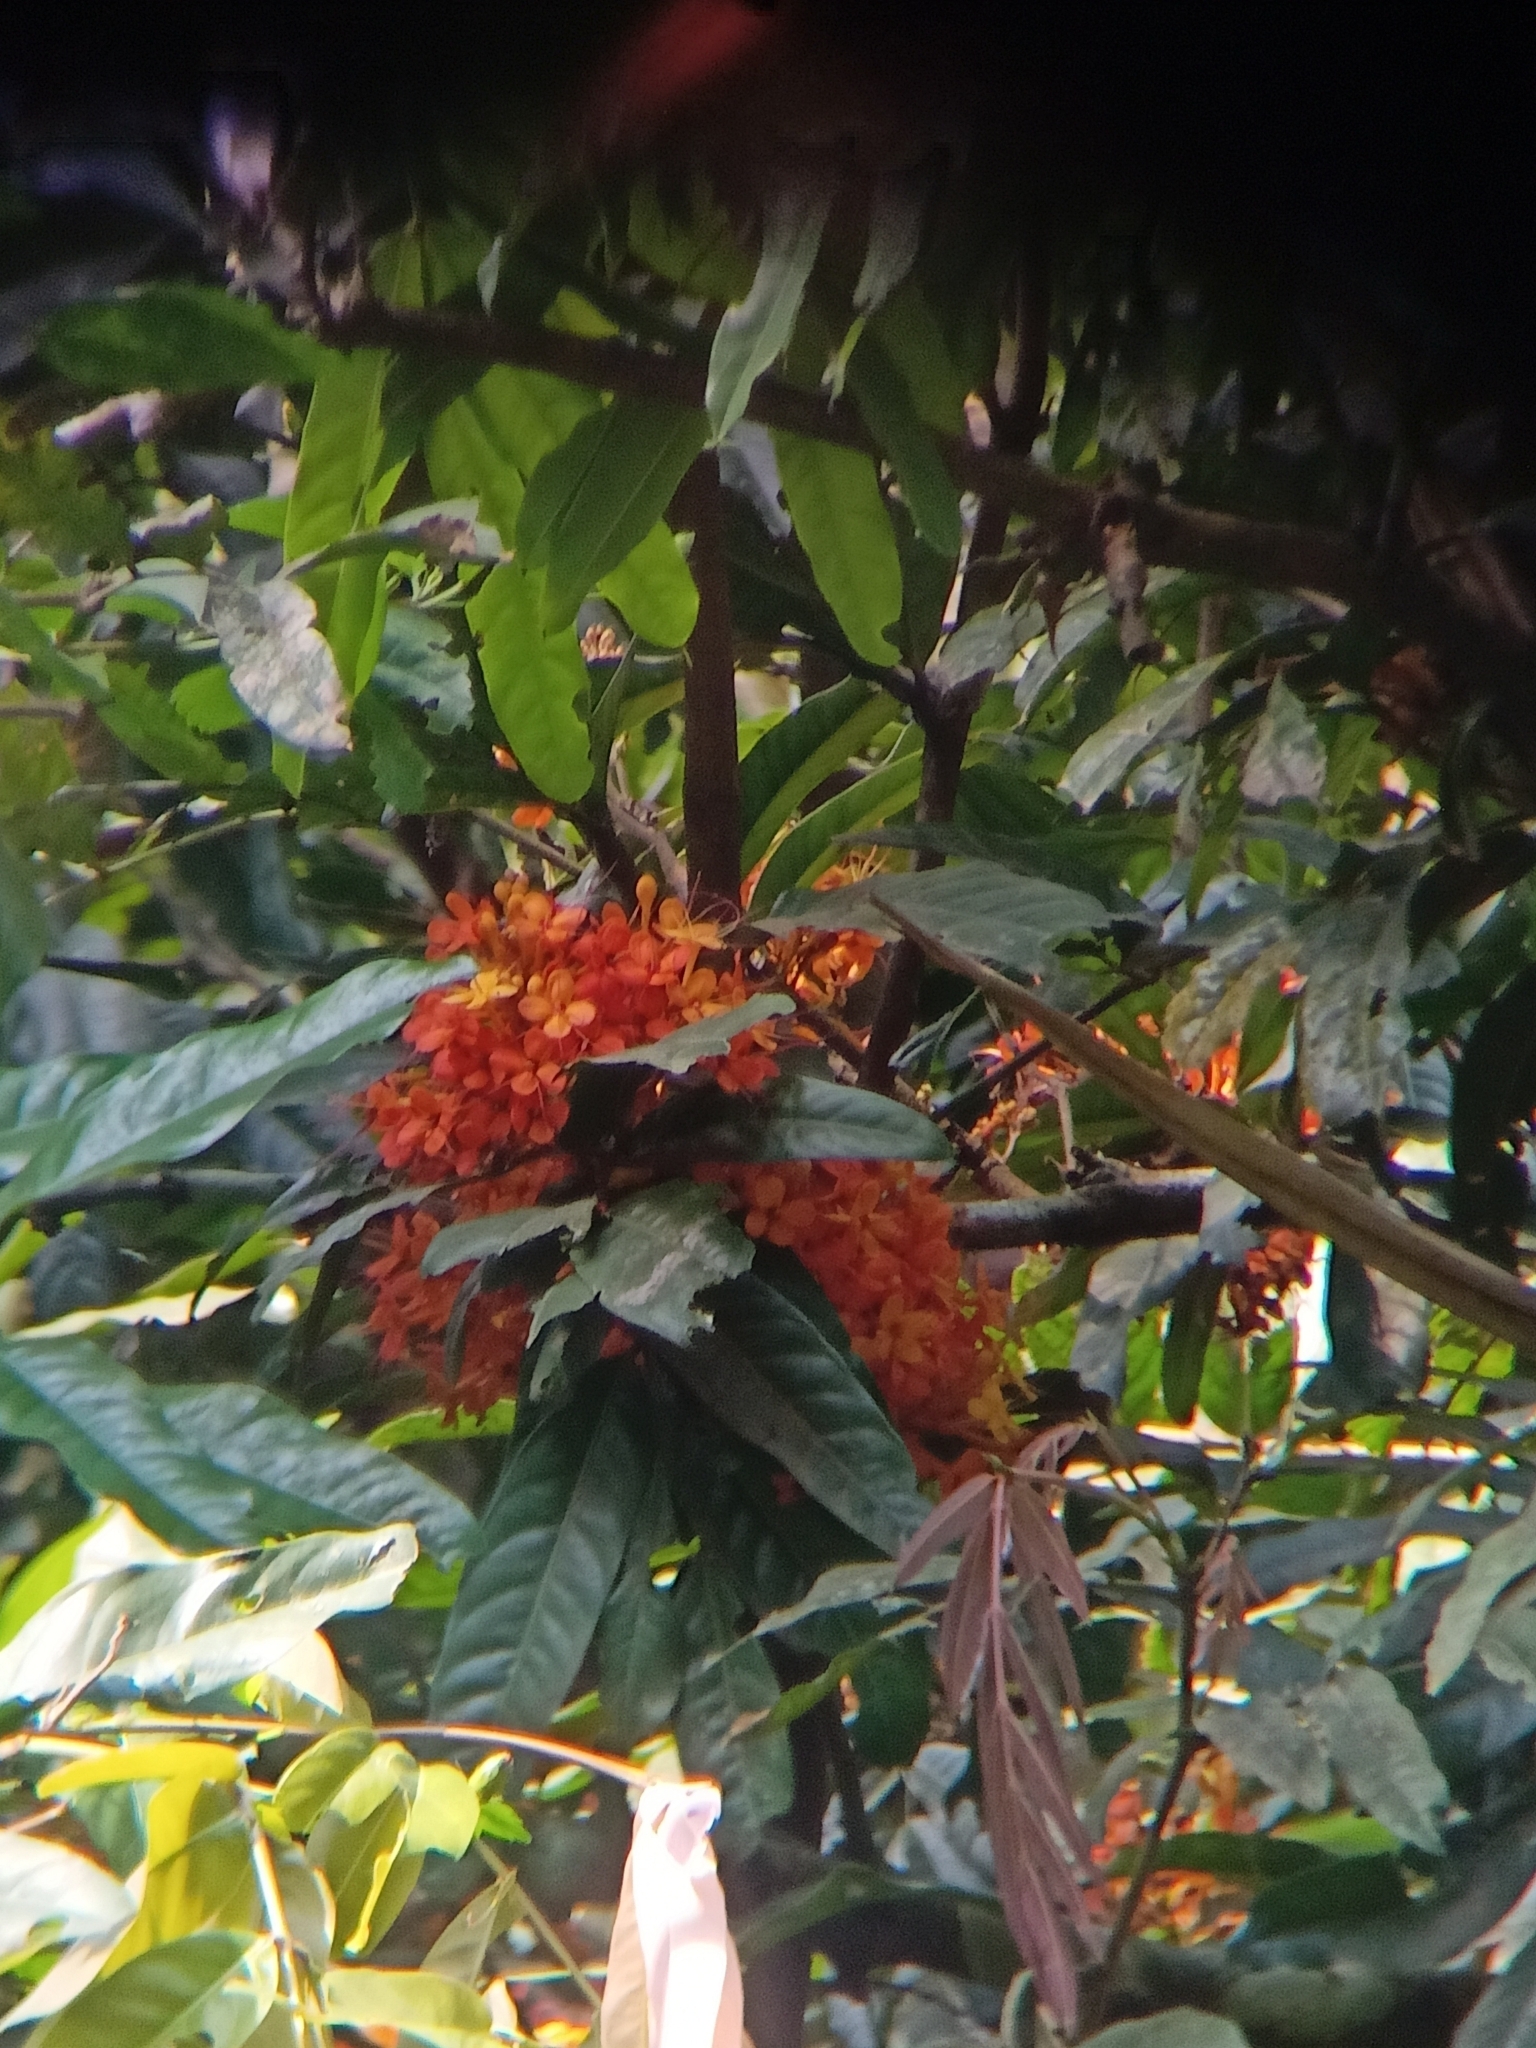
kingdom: Plantae
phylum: Tracheophyta
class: Magnoliopsida
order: Fabales
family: Fabaceae
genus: Saraca
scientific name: Saraca asoca
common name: Asoka-tree
